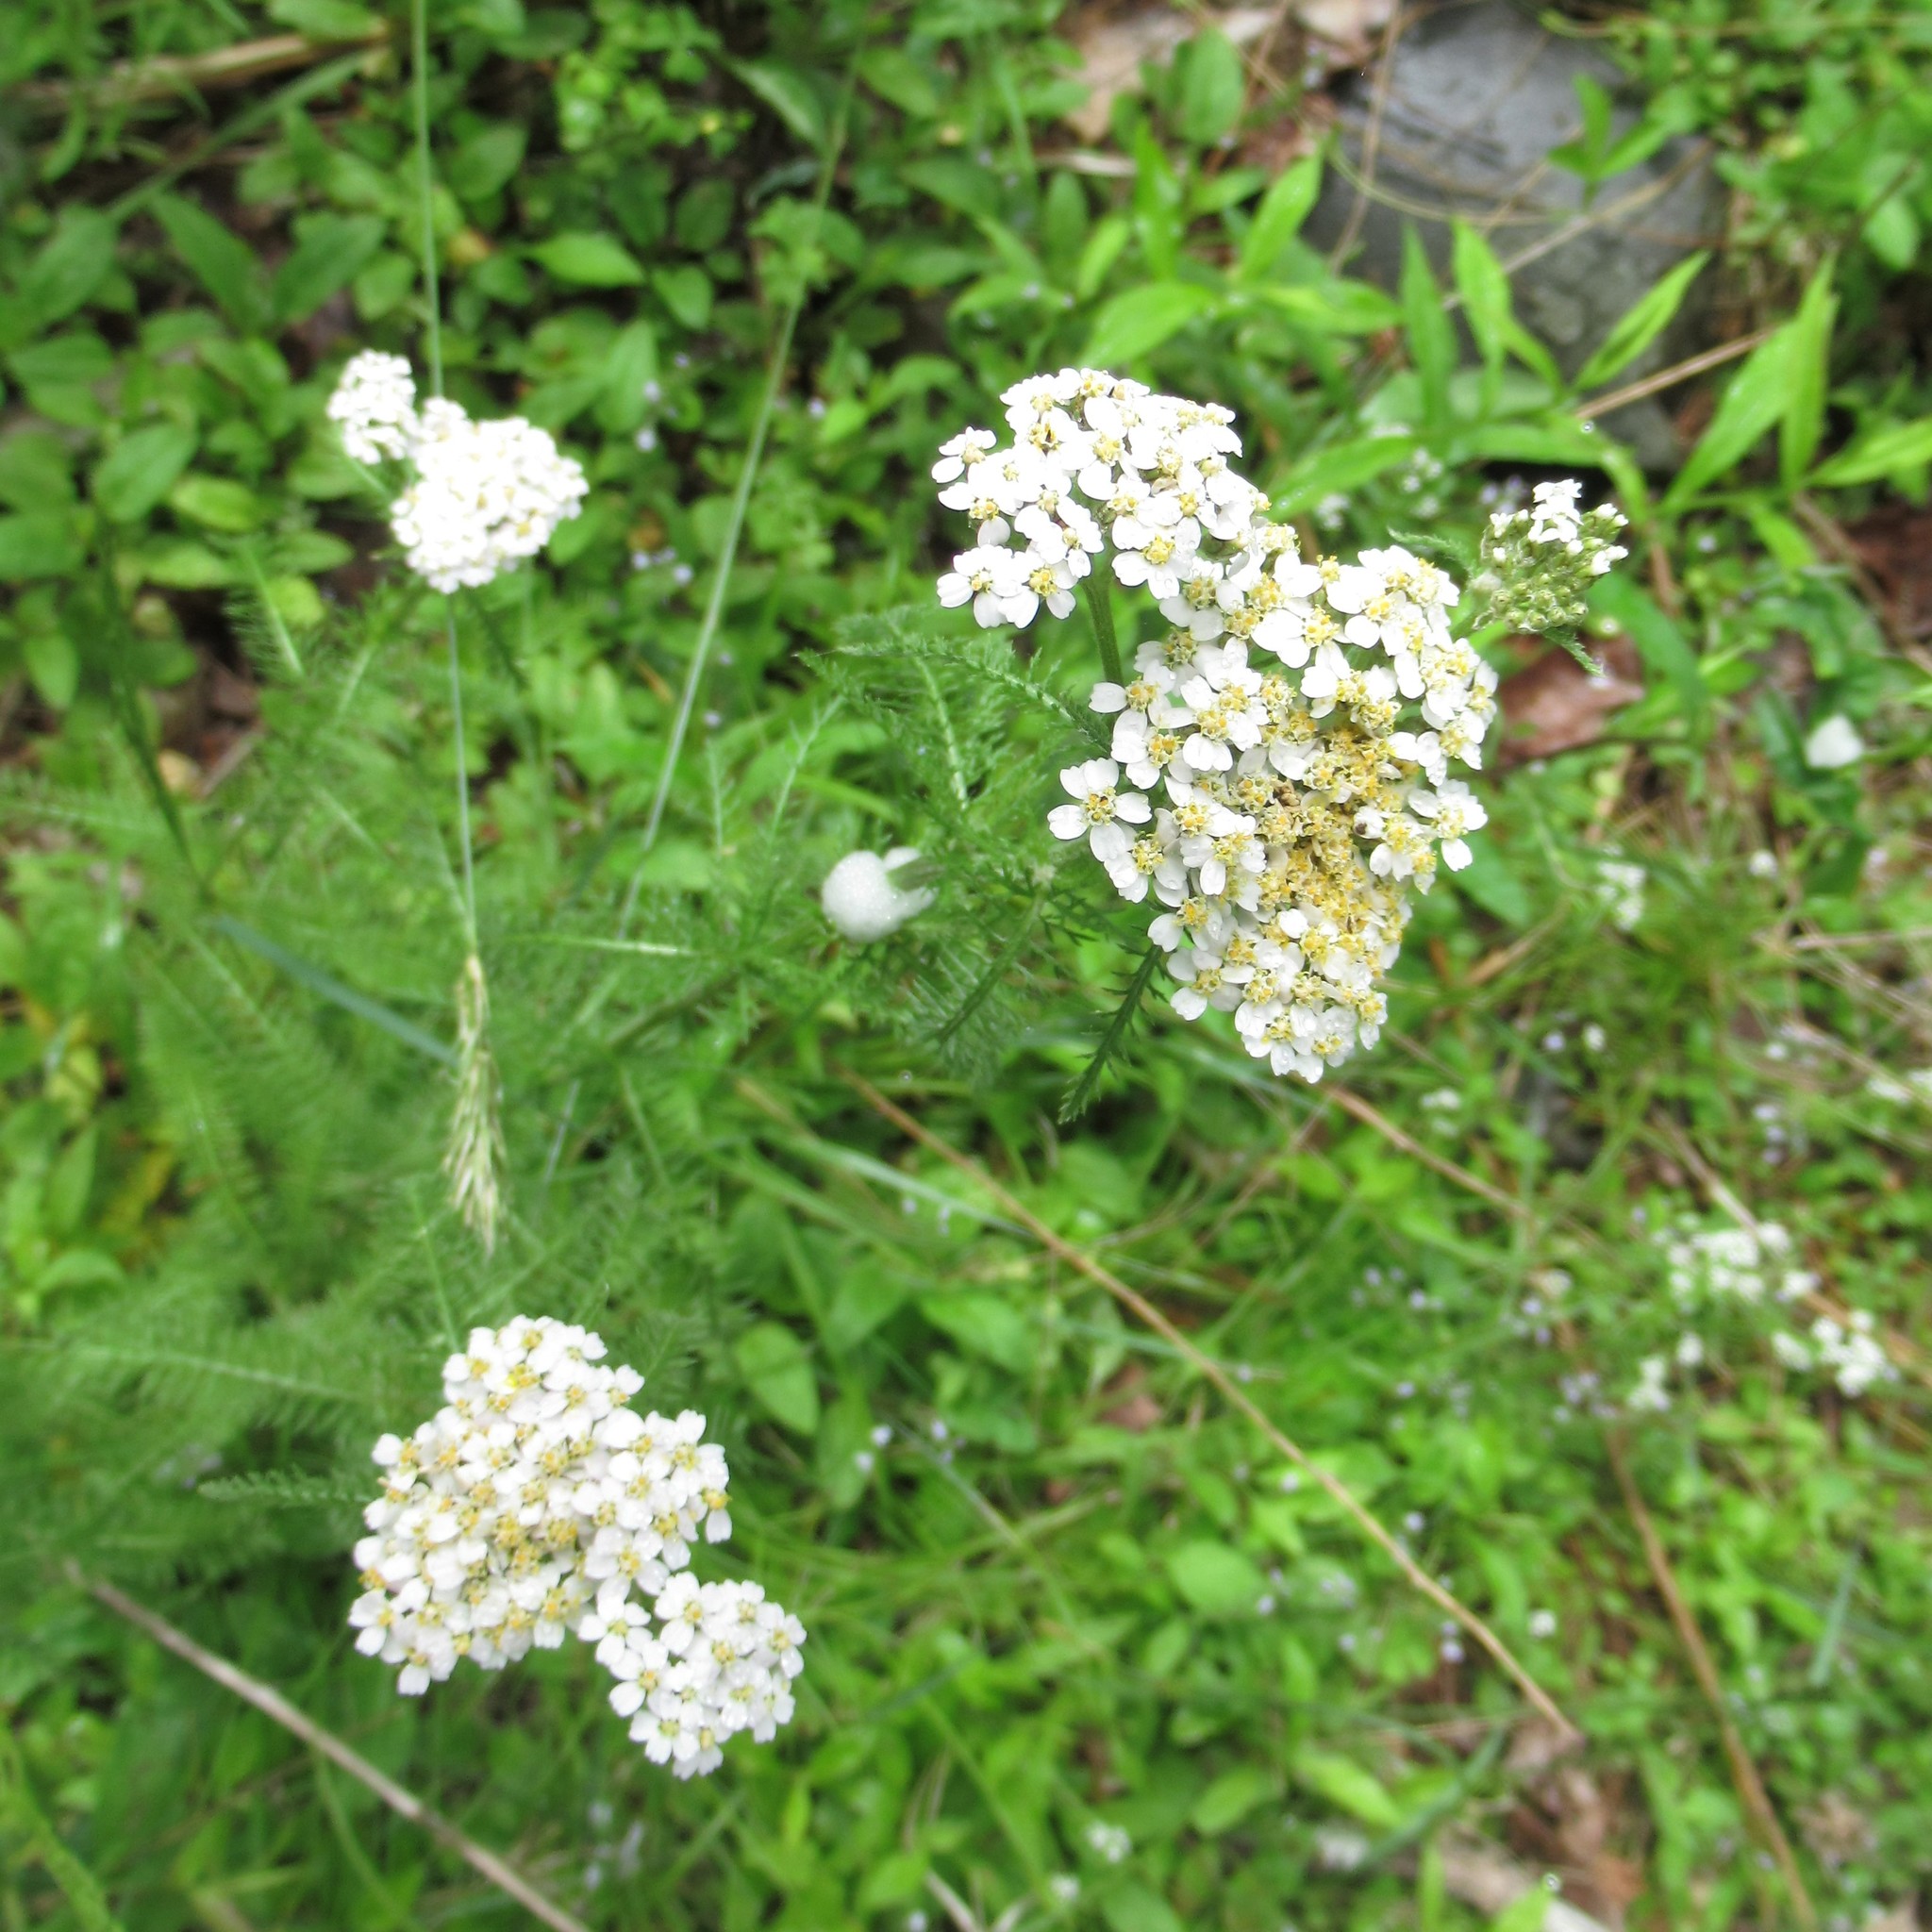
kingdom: Plantae
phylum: Tracheophyta
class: Magnoliopsida
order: Asterales
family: Asteraceae
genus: Achillea
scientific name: Achillea millefolium
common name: Yarrow
